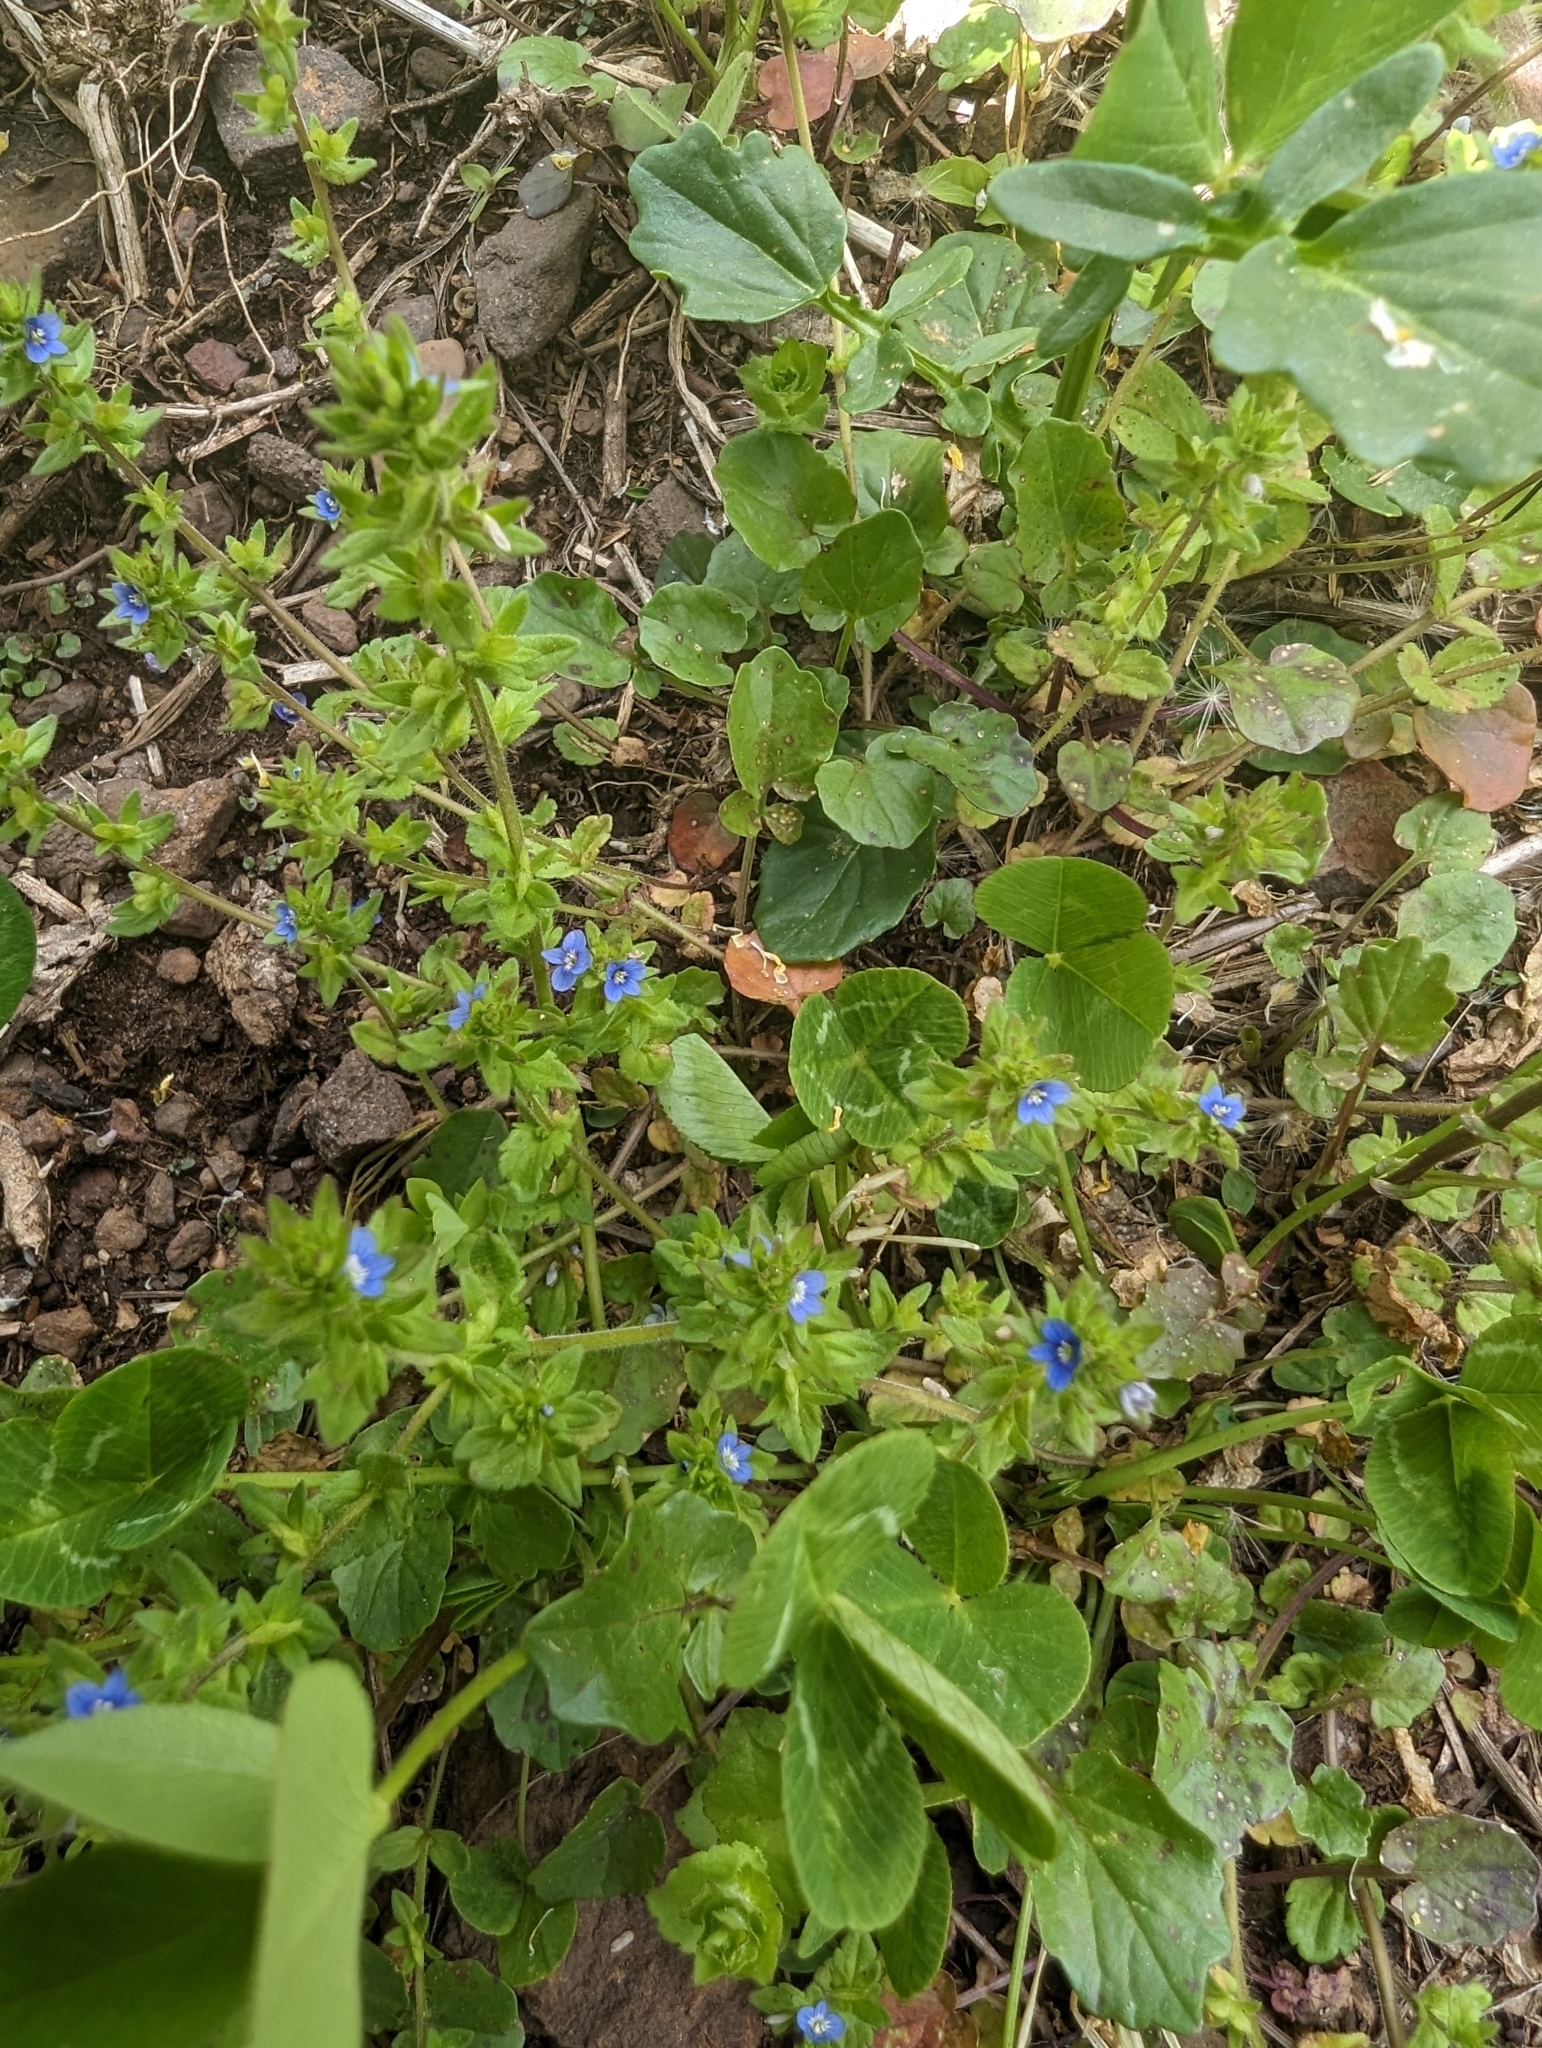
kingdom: Plantae
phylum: Tracheophyta
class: Magnoliopsida
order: Lamiales
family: Plantaginaceae
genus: Veronica
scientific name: Veronica arvensis
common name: Corn speedwell
